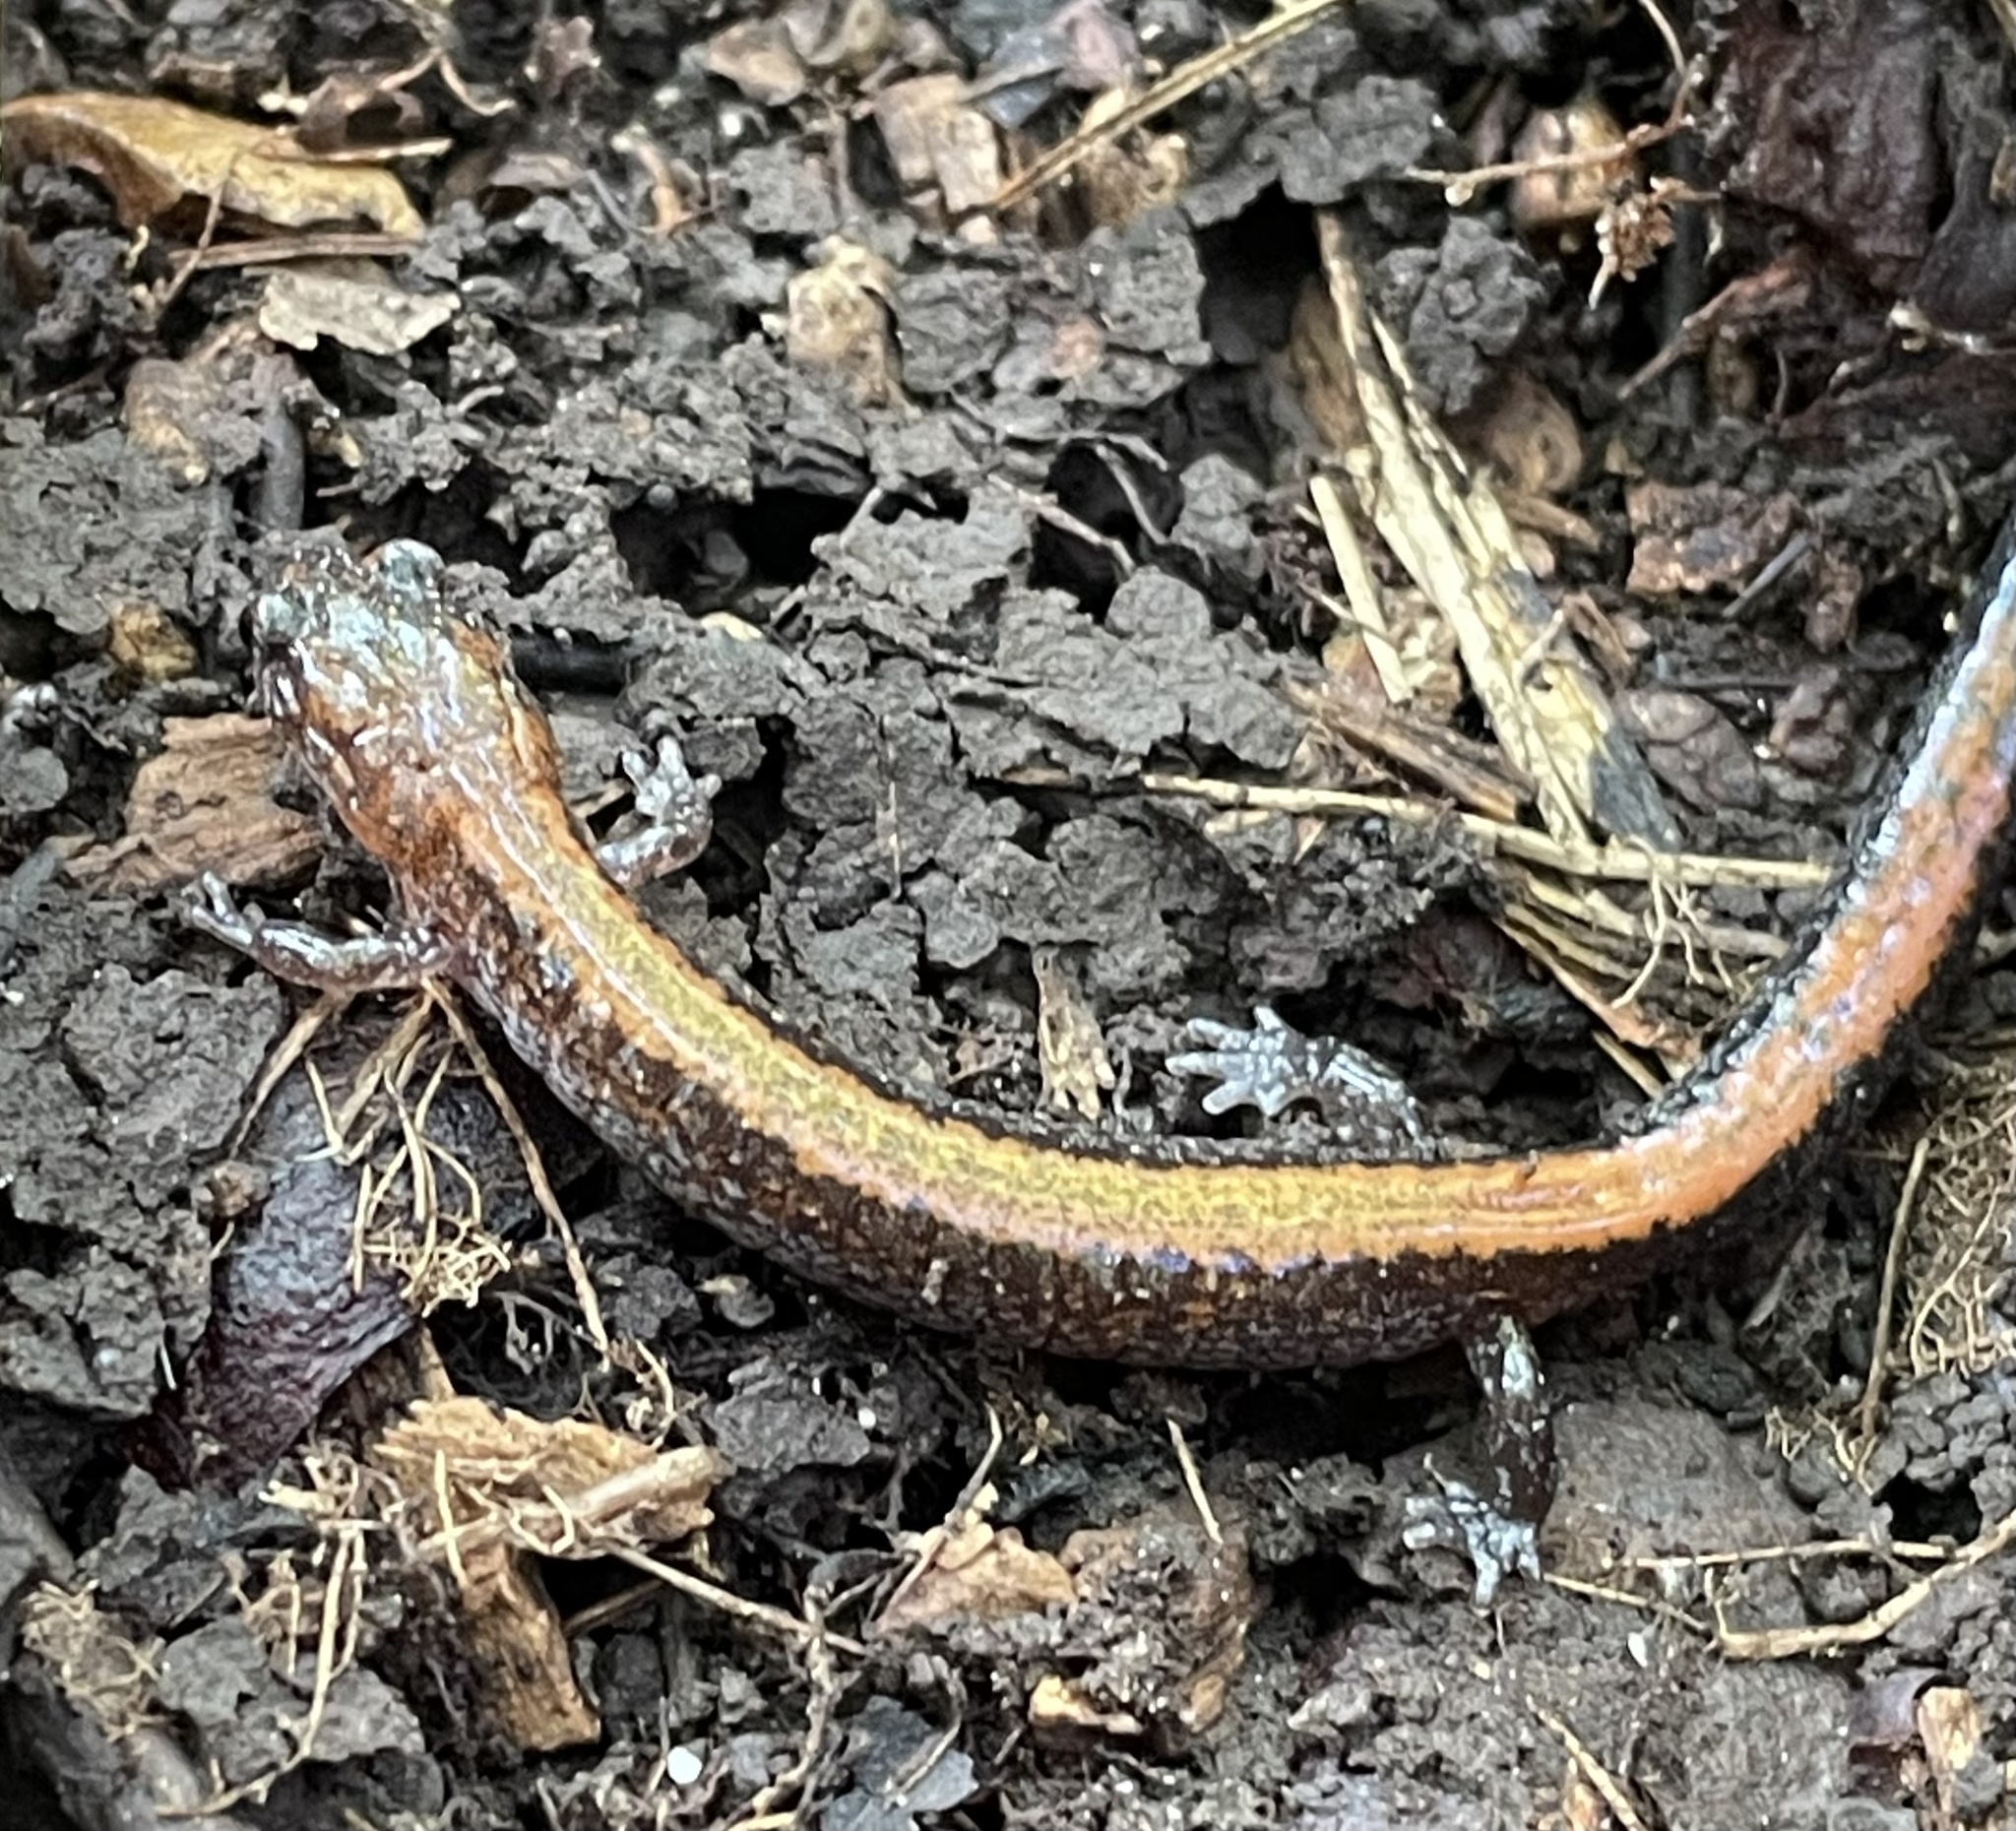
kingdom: Animalia
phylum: Chordata
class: Amphibia
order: Caudata
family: Plethodontidae
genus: Plethodon
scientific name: Plethodon cinereus
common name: Redback salamander
